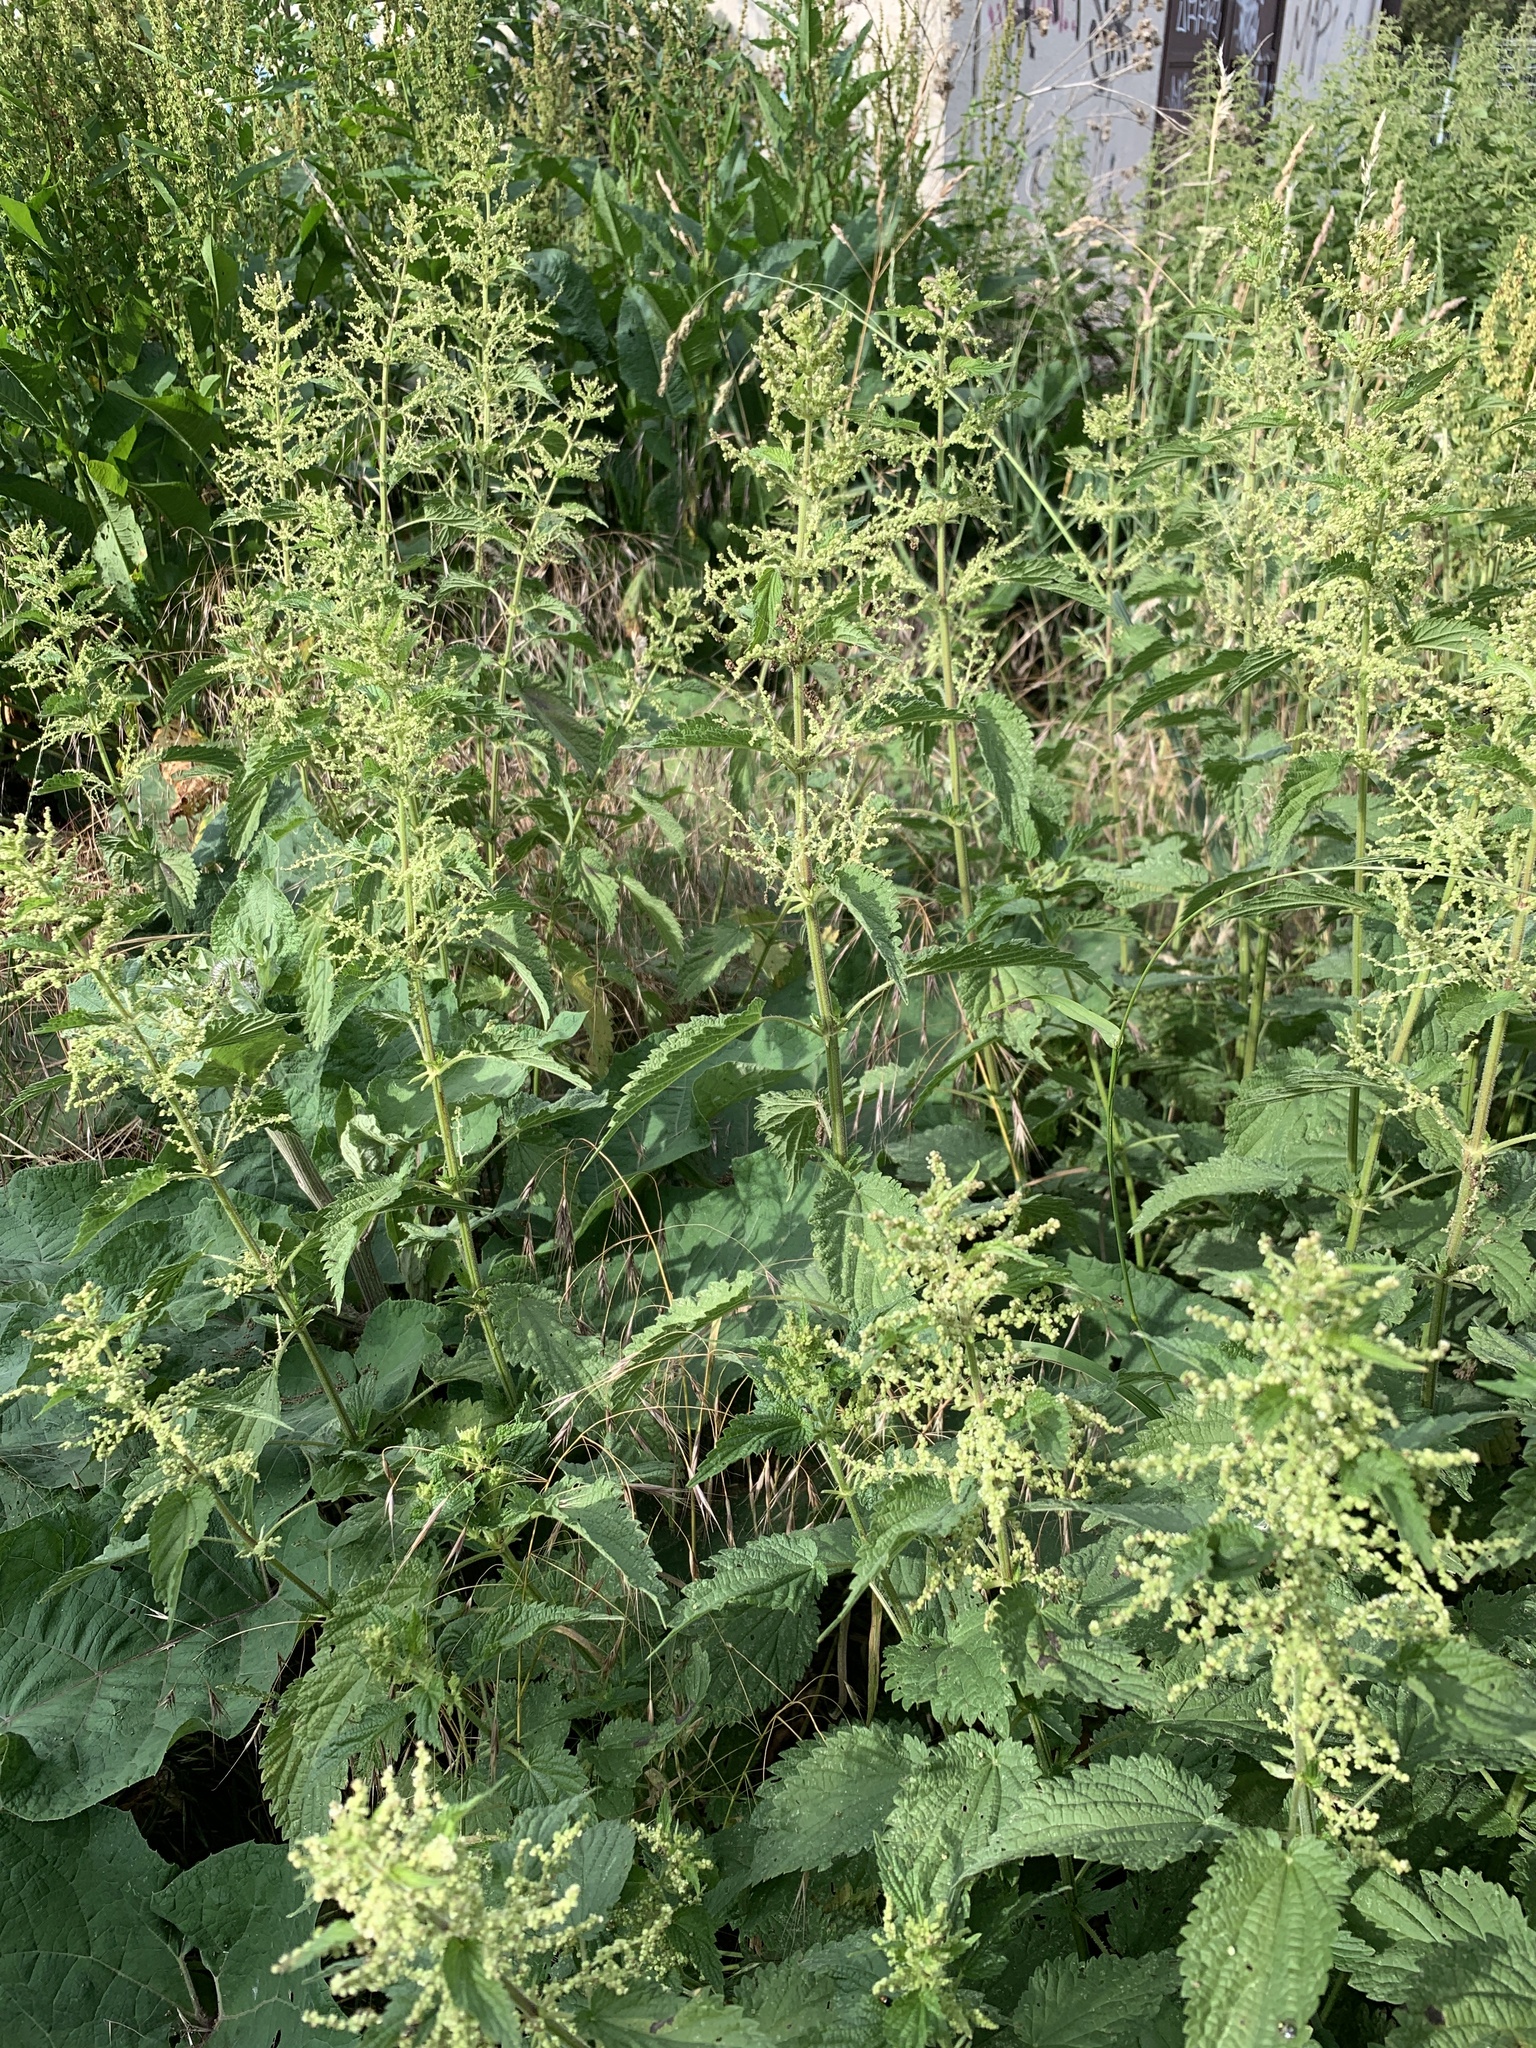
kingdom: Plantae
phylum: Tracheophyta
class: Magnoliopsida
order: Rosales
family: Urticaceae
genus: Urtica
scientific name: Urtica dioica
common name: Common nettle
